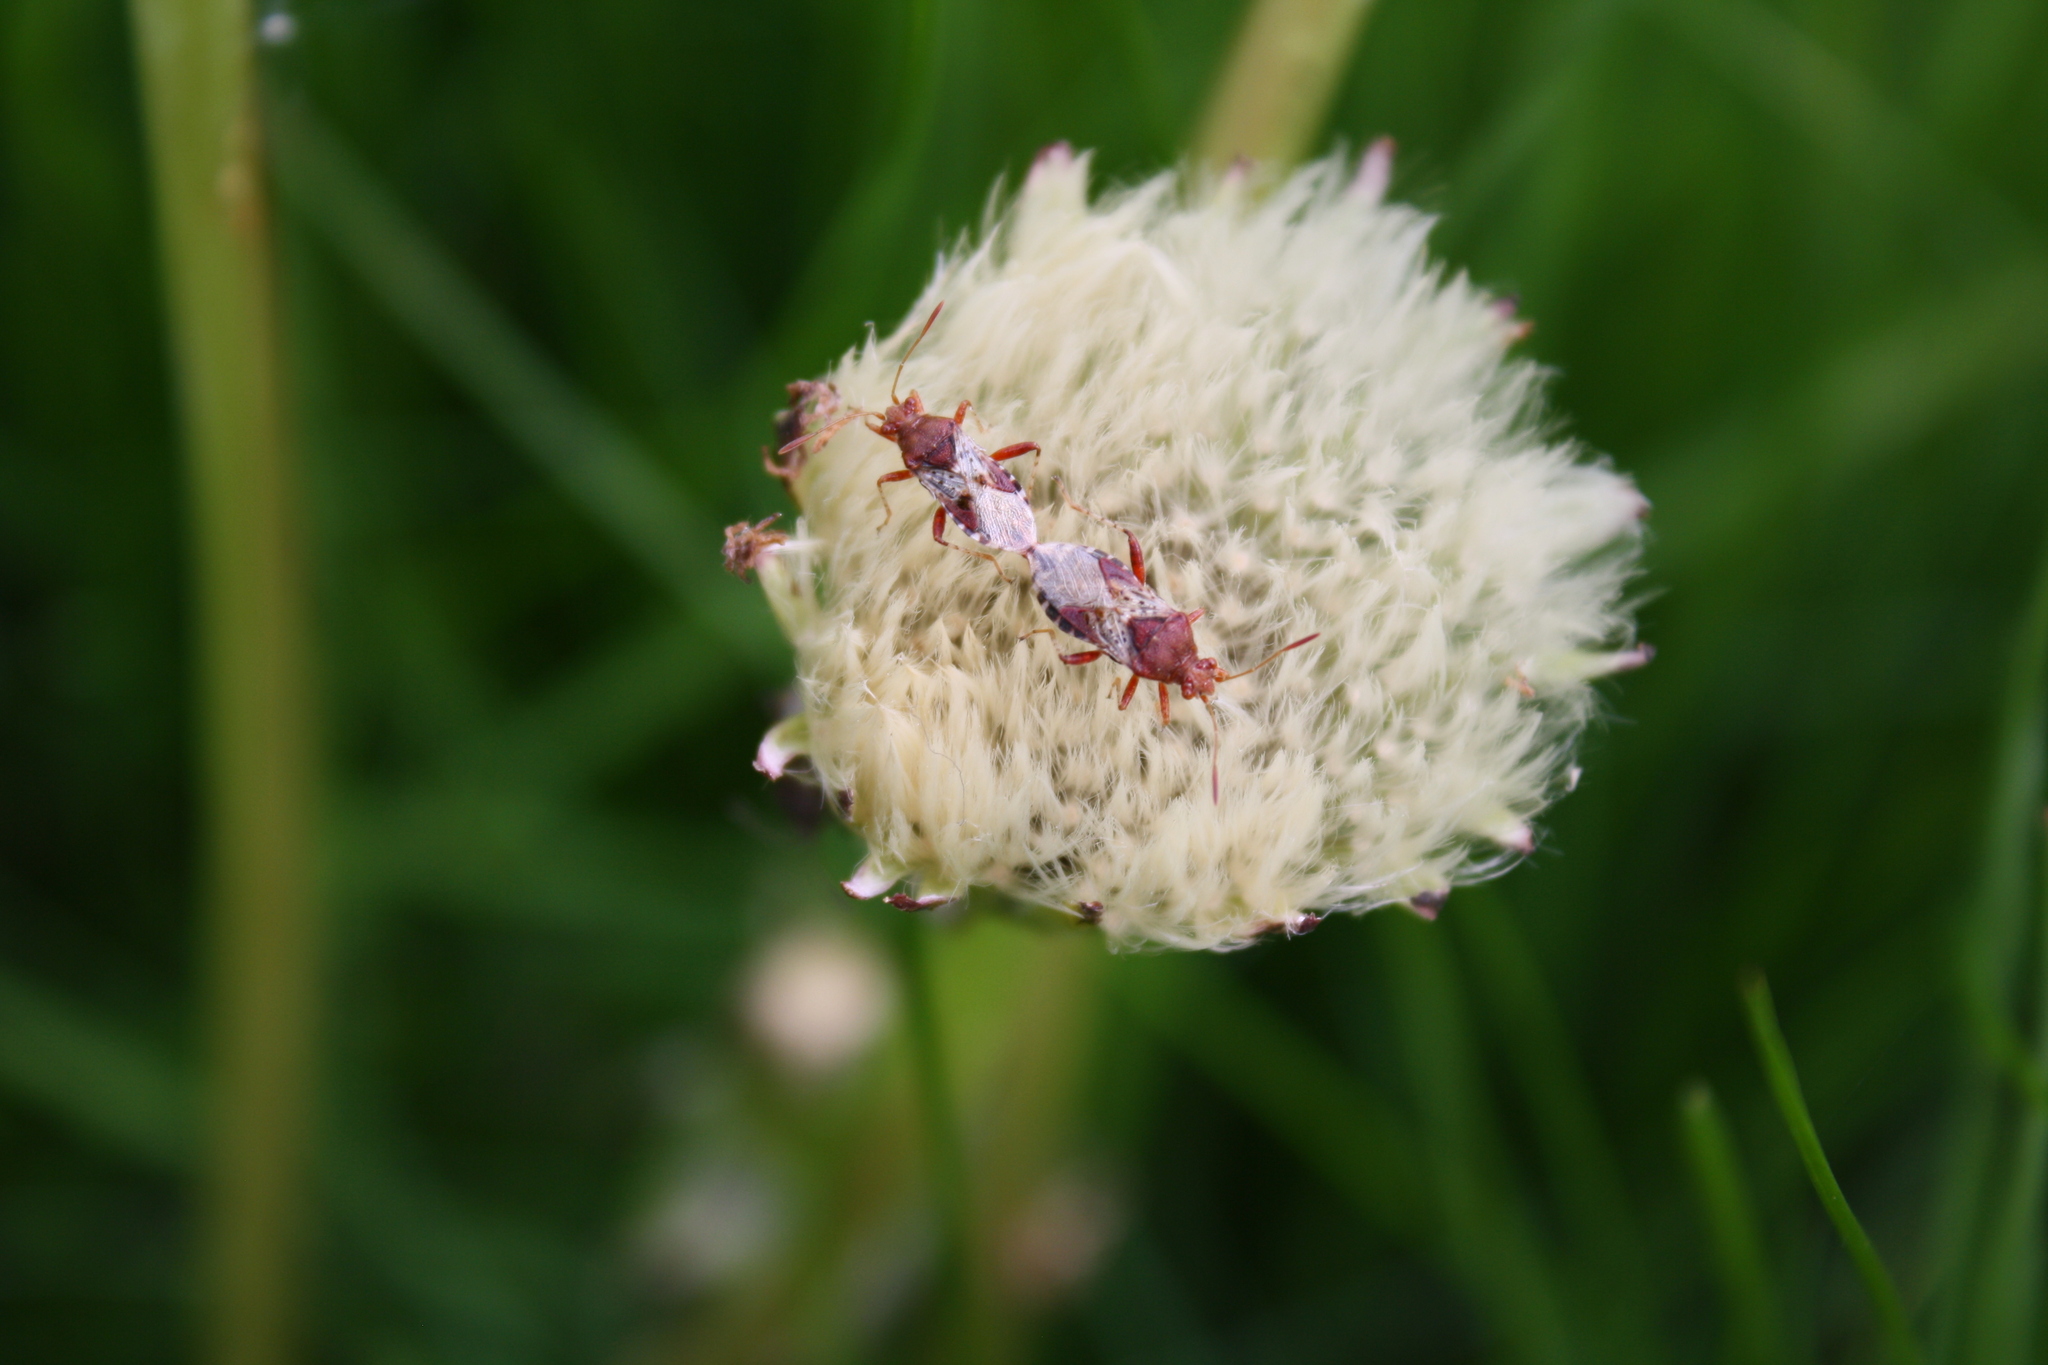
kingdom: Animalia
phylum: Arthropoda
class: Insecta
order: Hemiptera
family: Rhopalidae
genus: Rhopalus
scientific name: Rhopalus subrufus
